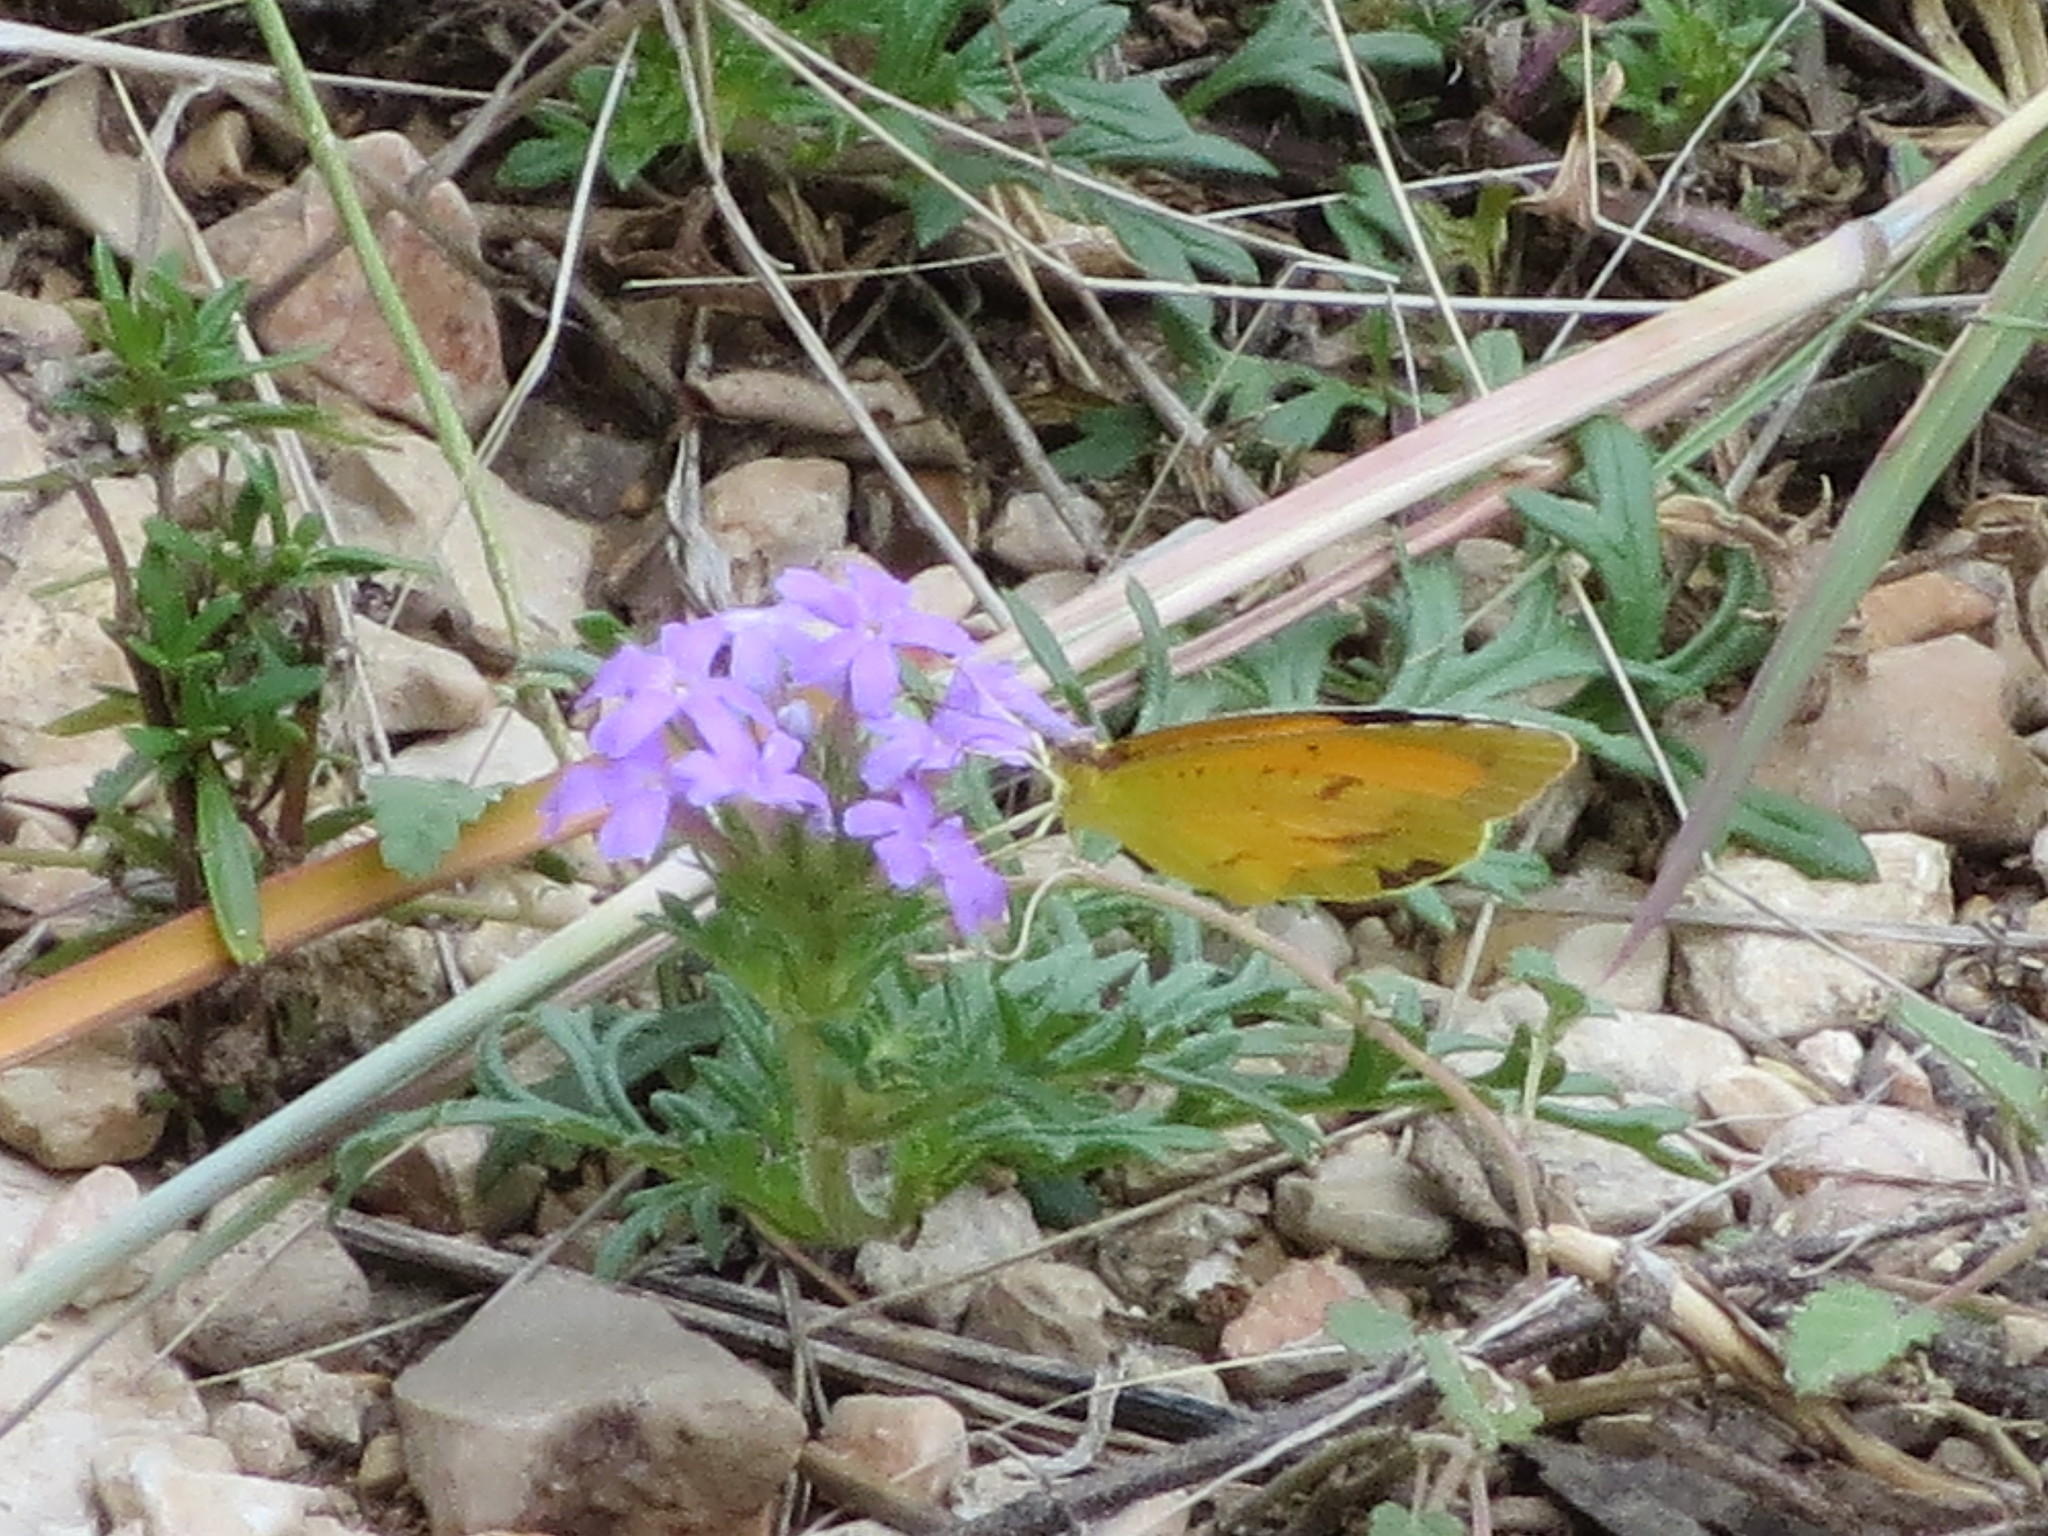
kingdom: Animalia
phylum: Arthropoda
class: Insecta
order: Lepidoptera
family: Pieridae
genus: Abaeis
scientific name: Abaeis nicippe
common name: Sleepy orange
